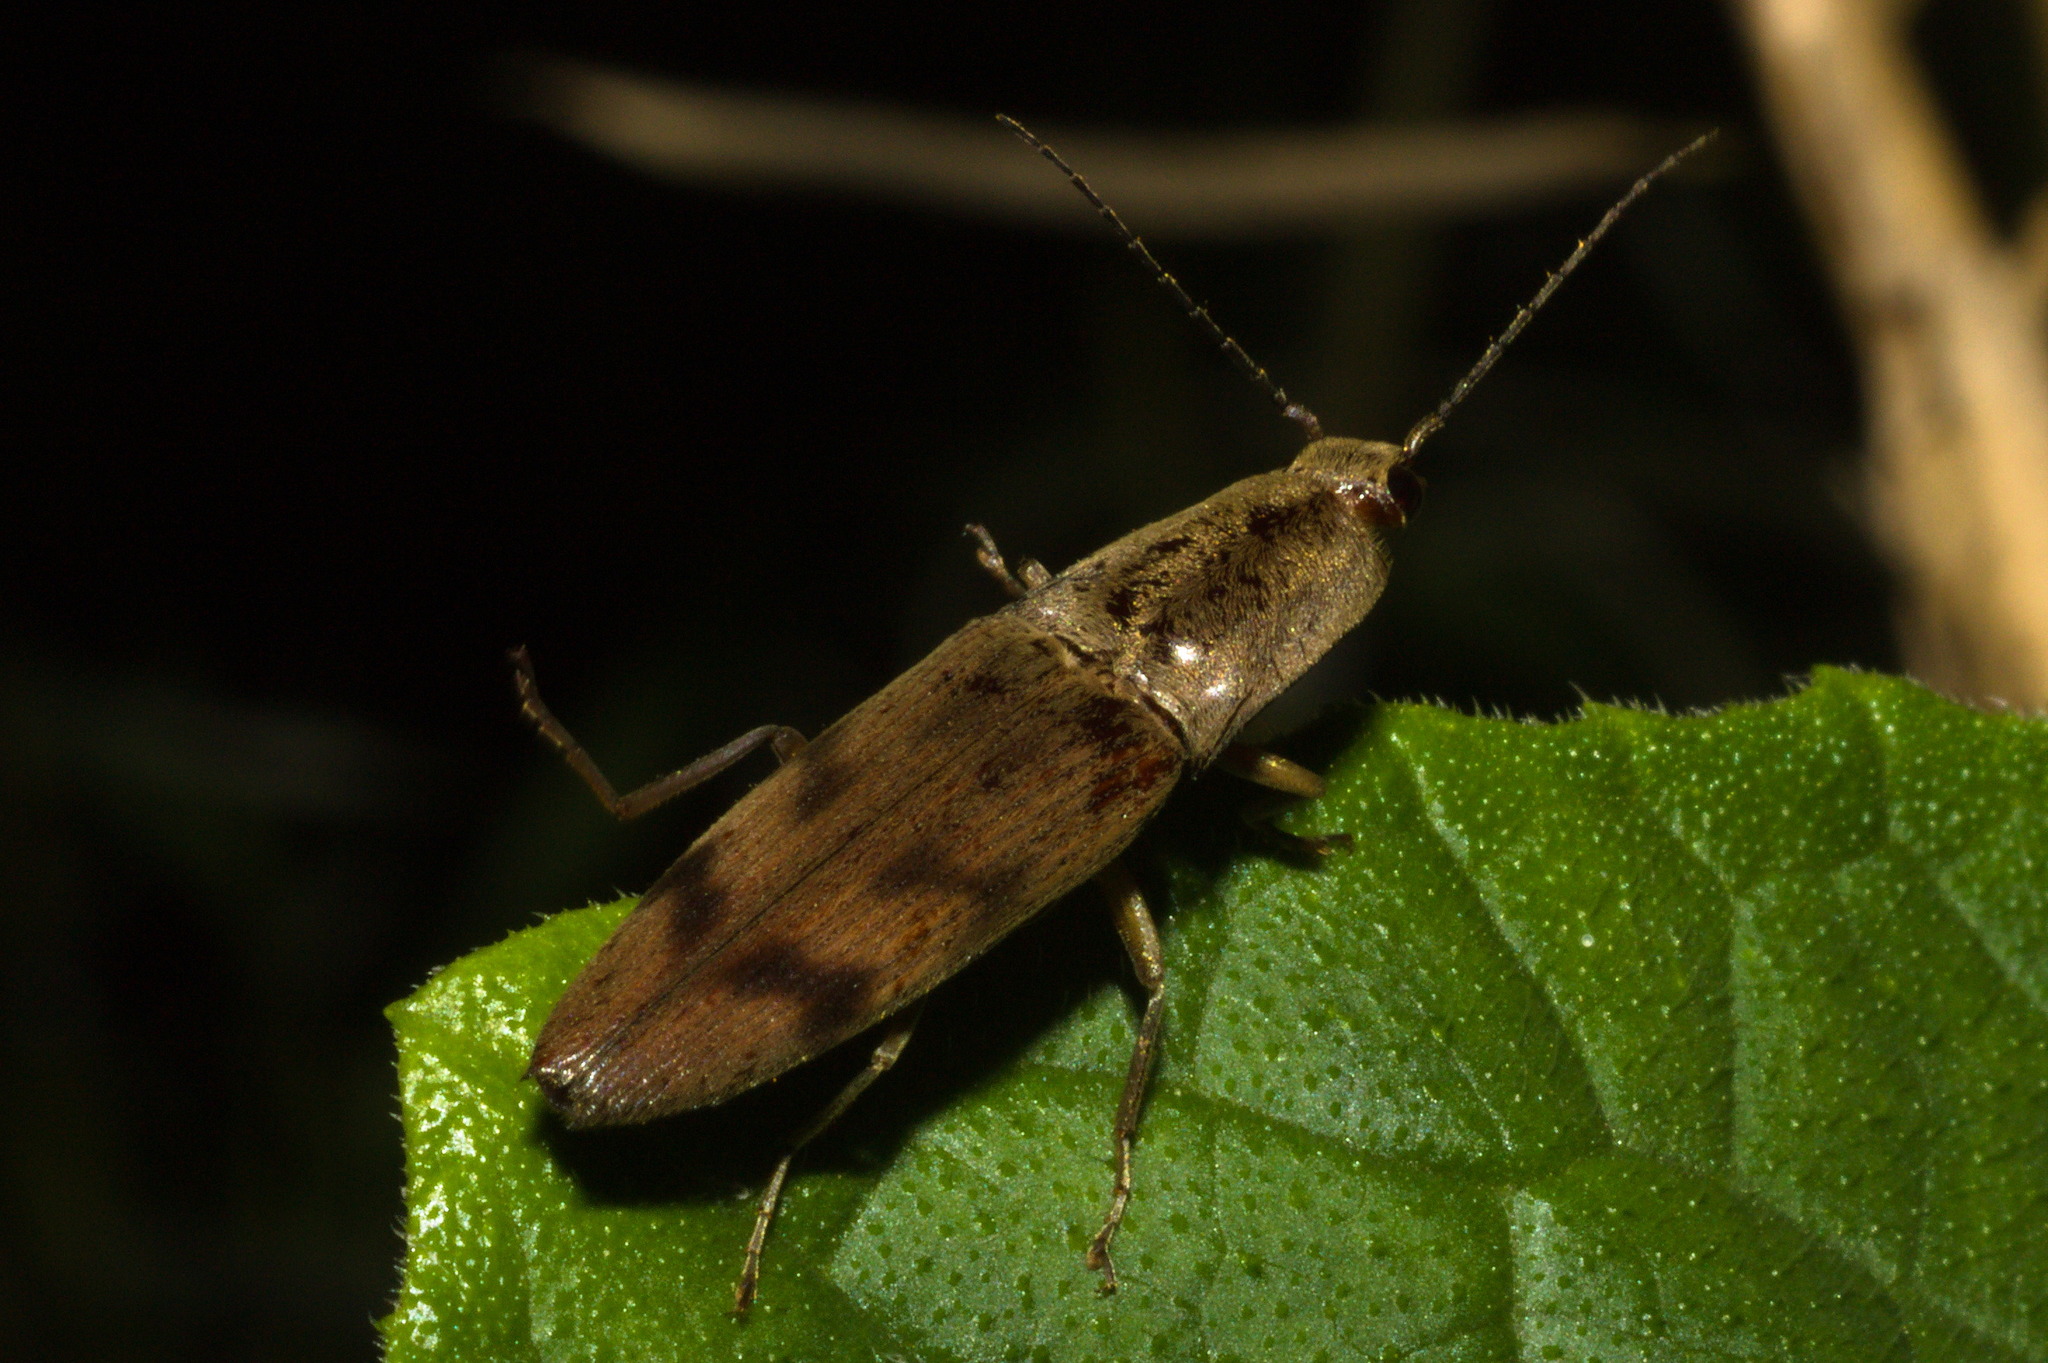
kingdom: Animalia
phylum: Arthropoda
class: Insecta
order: Coleoptera
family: Elateridae
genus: Monocrepidius
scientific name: Monocrepidius
